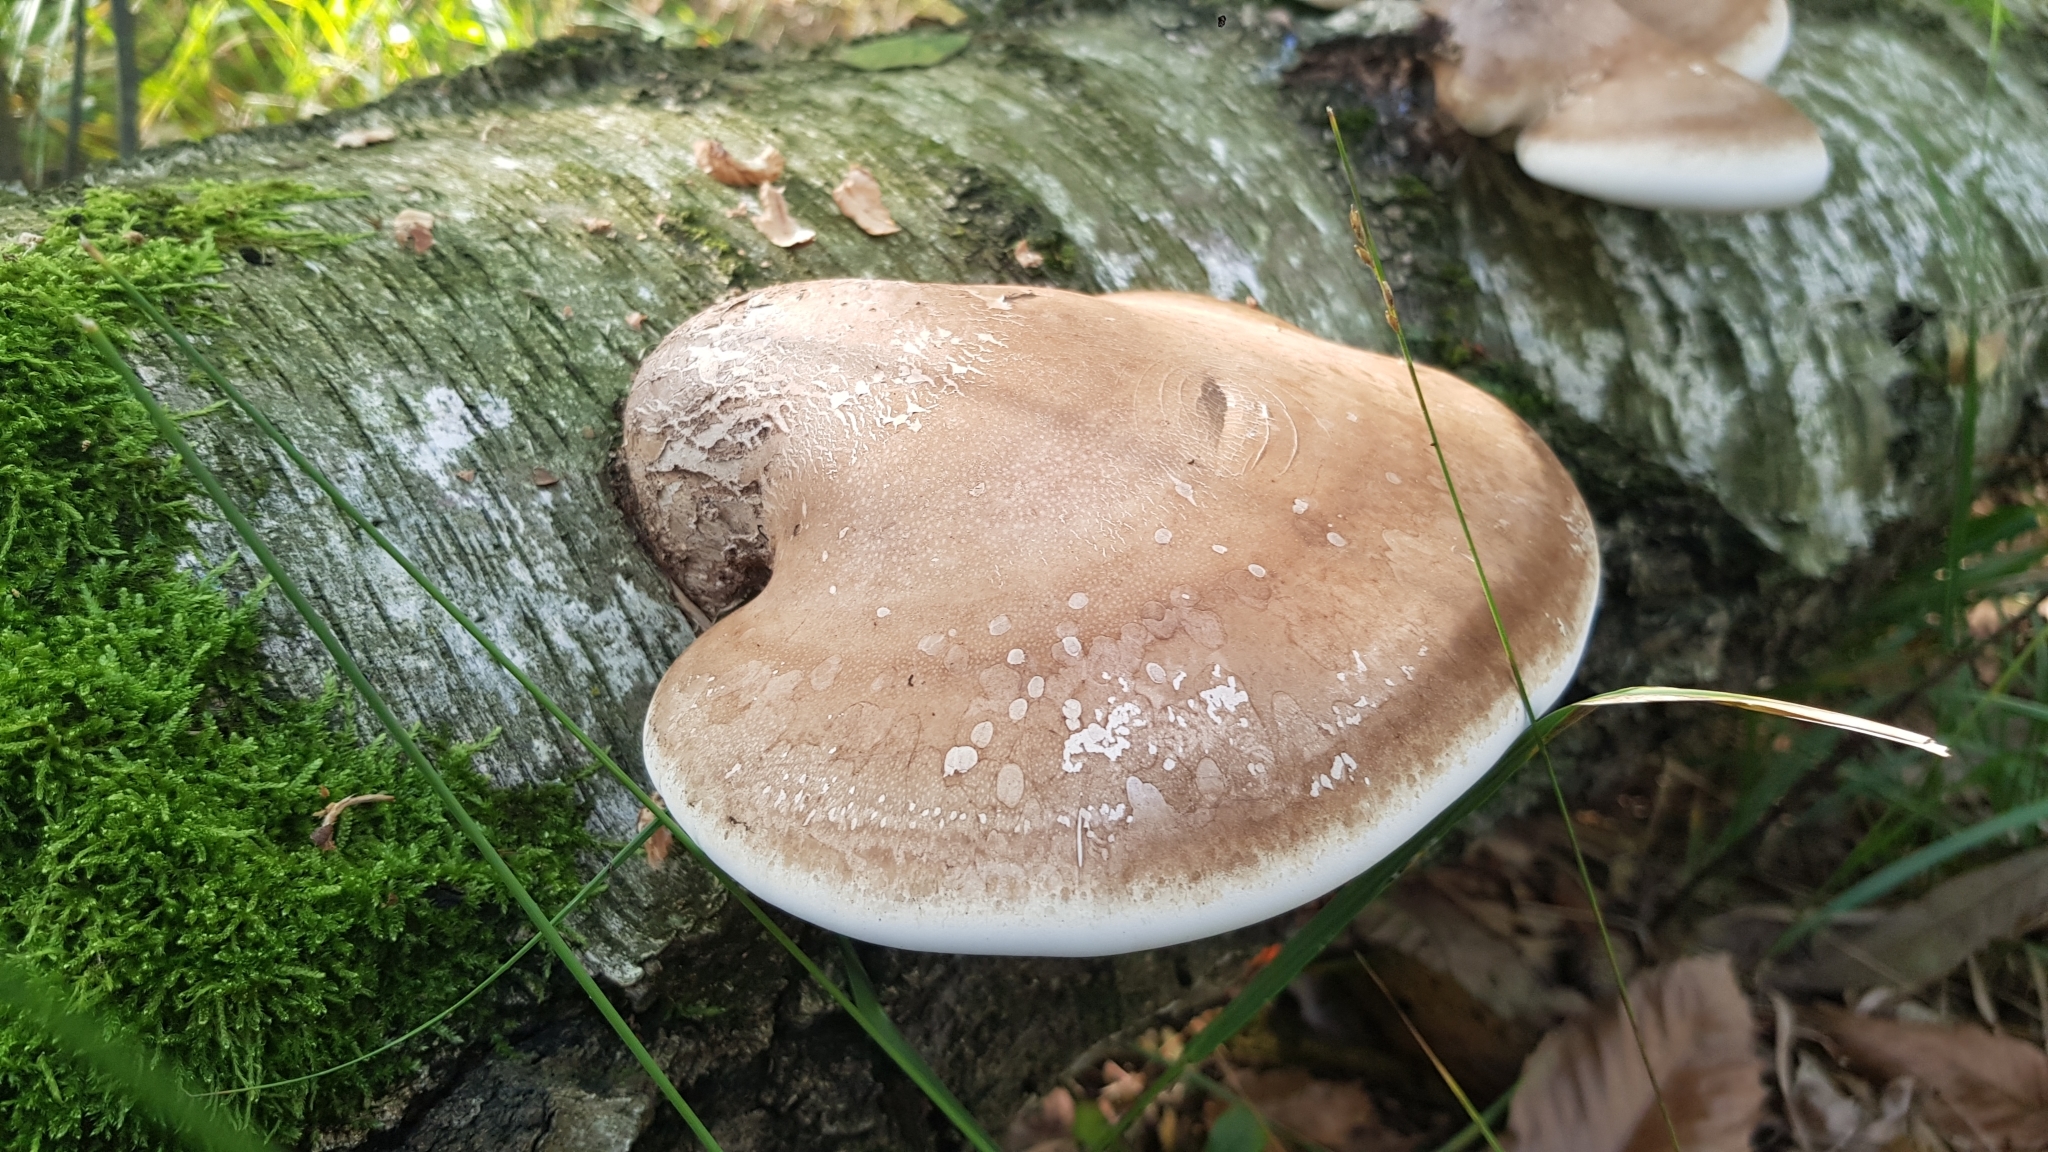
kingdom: Fungi
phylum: Basidiomycota
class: Agaricomycetes
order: Polyporales
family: Fomitopsidaceae
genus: Fomitopsis
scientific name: Fomitopsis betulina
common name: Birch polypore
